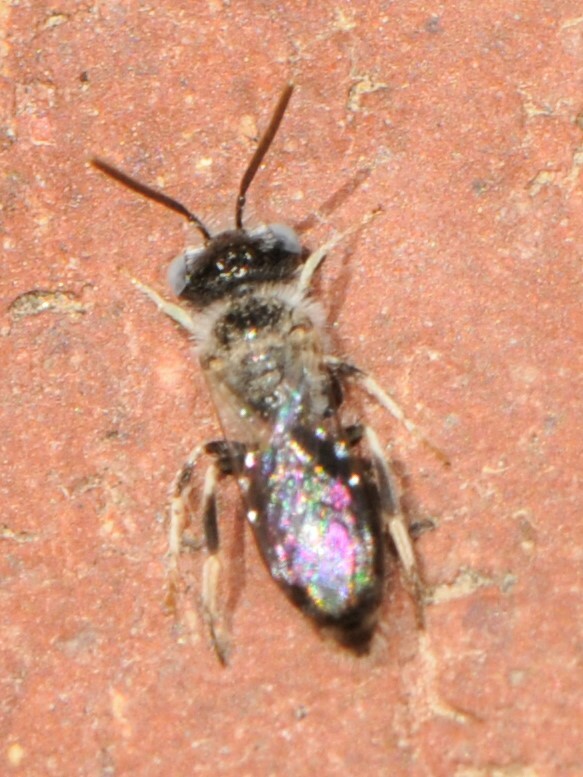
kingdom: Animalia
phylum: Arthropoda
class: Insecta
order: Hymenoptera
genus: Hypomacrotera
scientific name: Hypomacrotera
